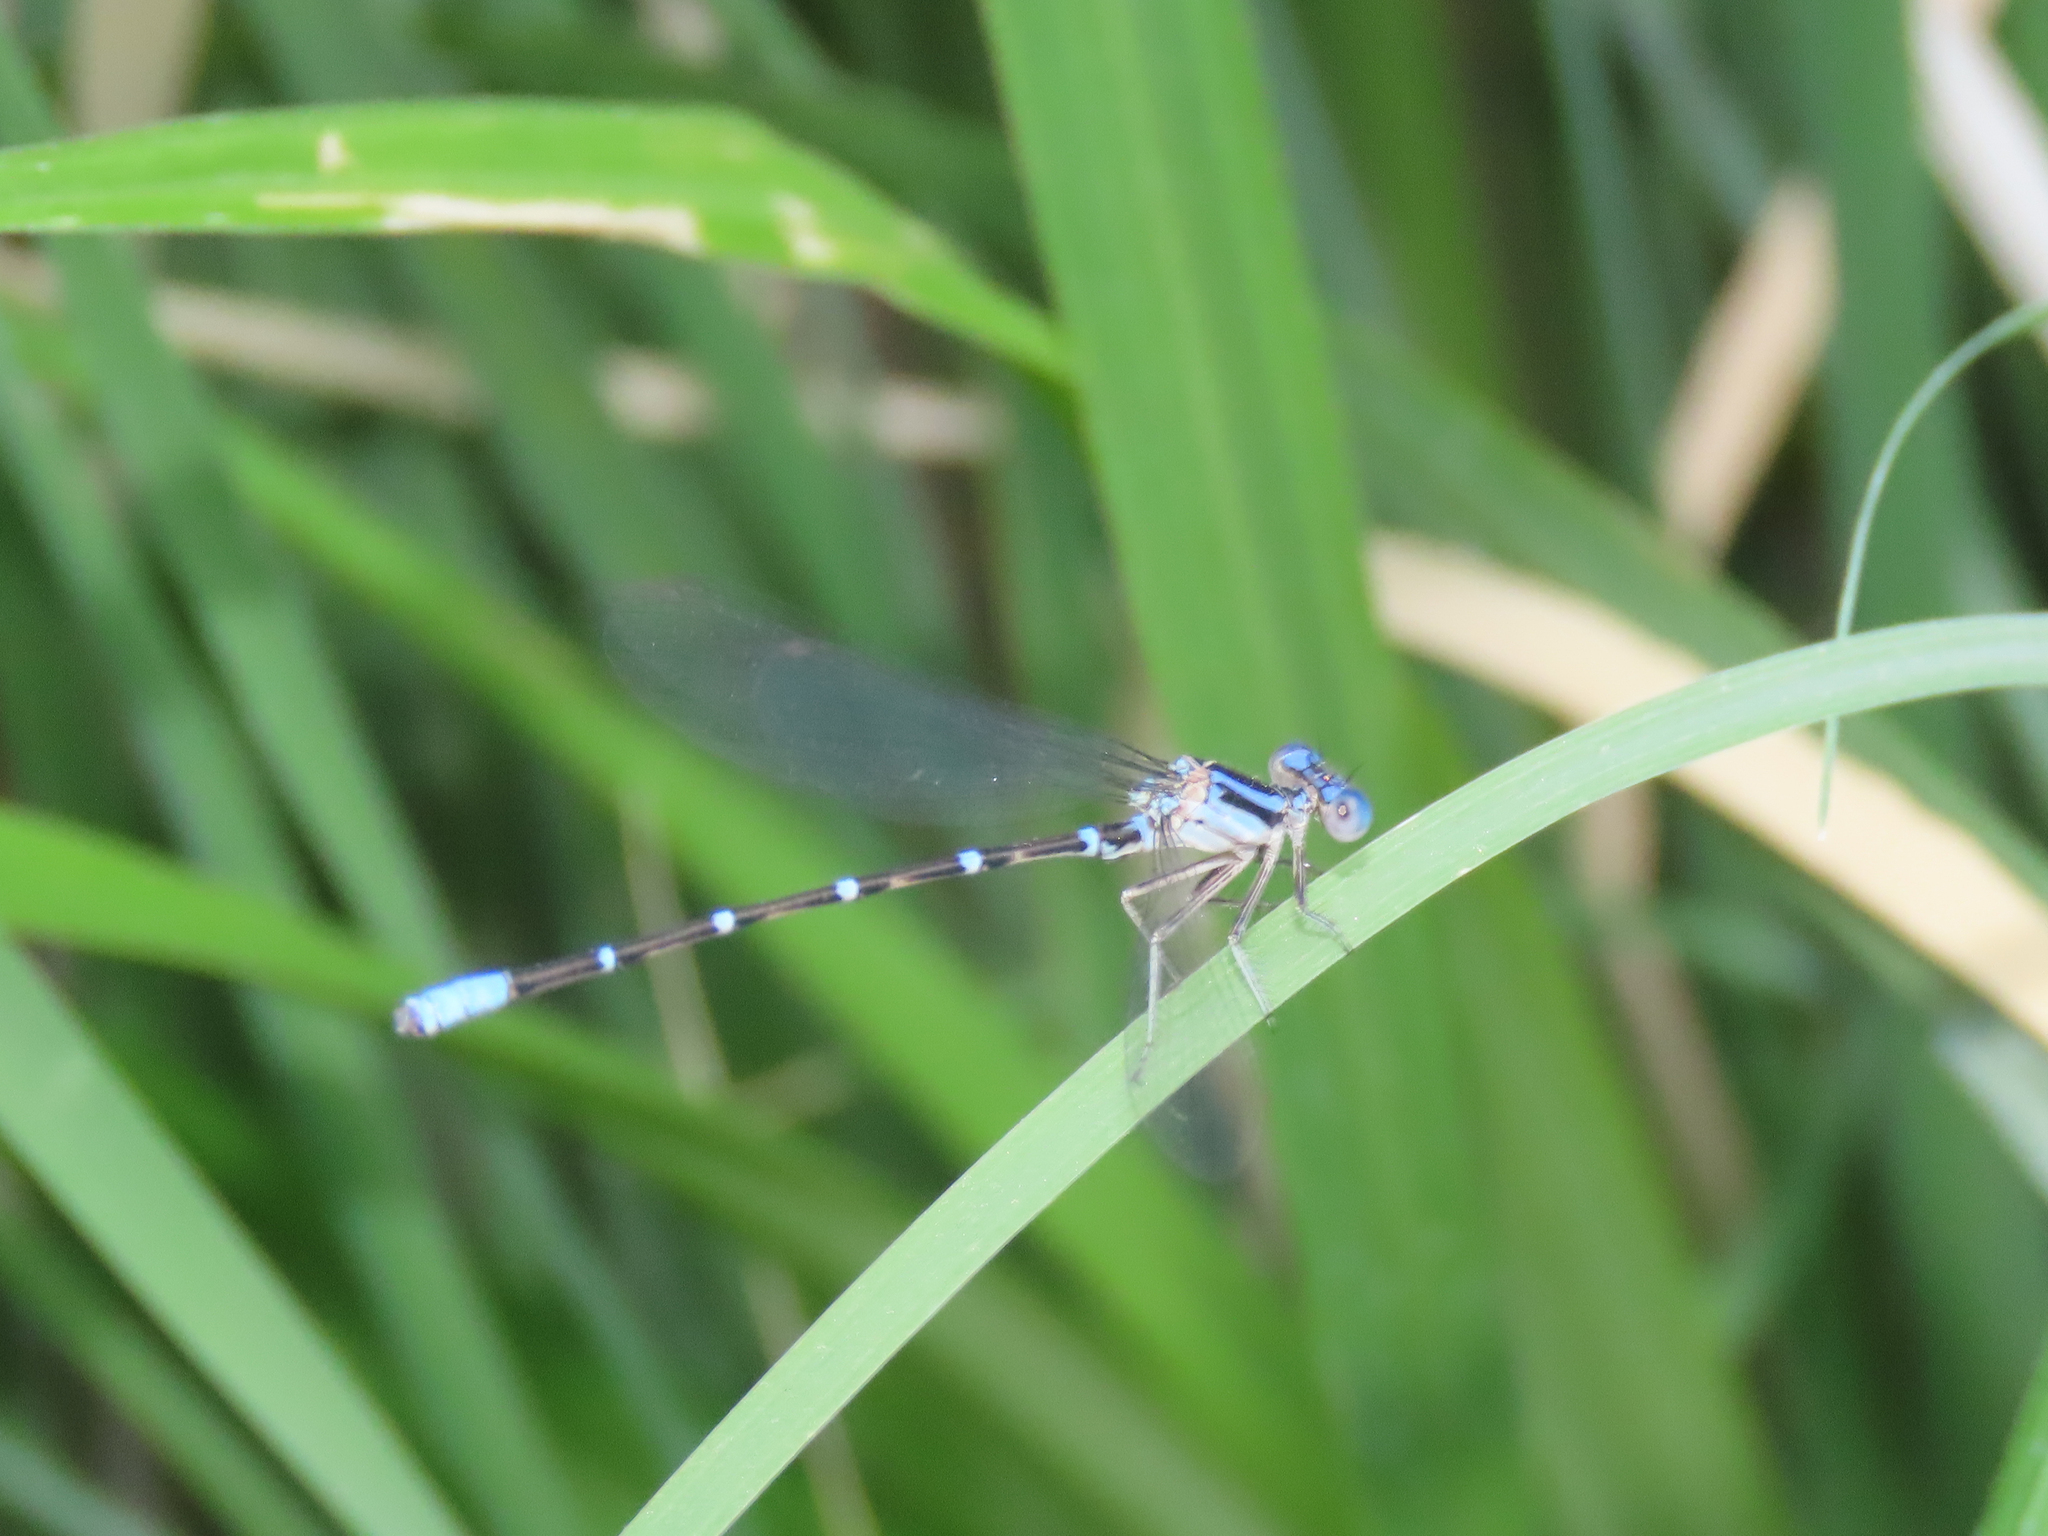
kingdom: Animalia
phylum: Arthropoda
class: Insecta
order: Odonata
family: Coenagrionidae
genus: Argia
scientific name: Argia sedula
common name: Blue-ringed dancer
